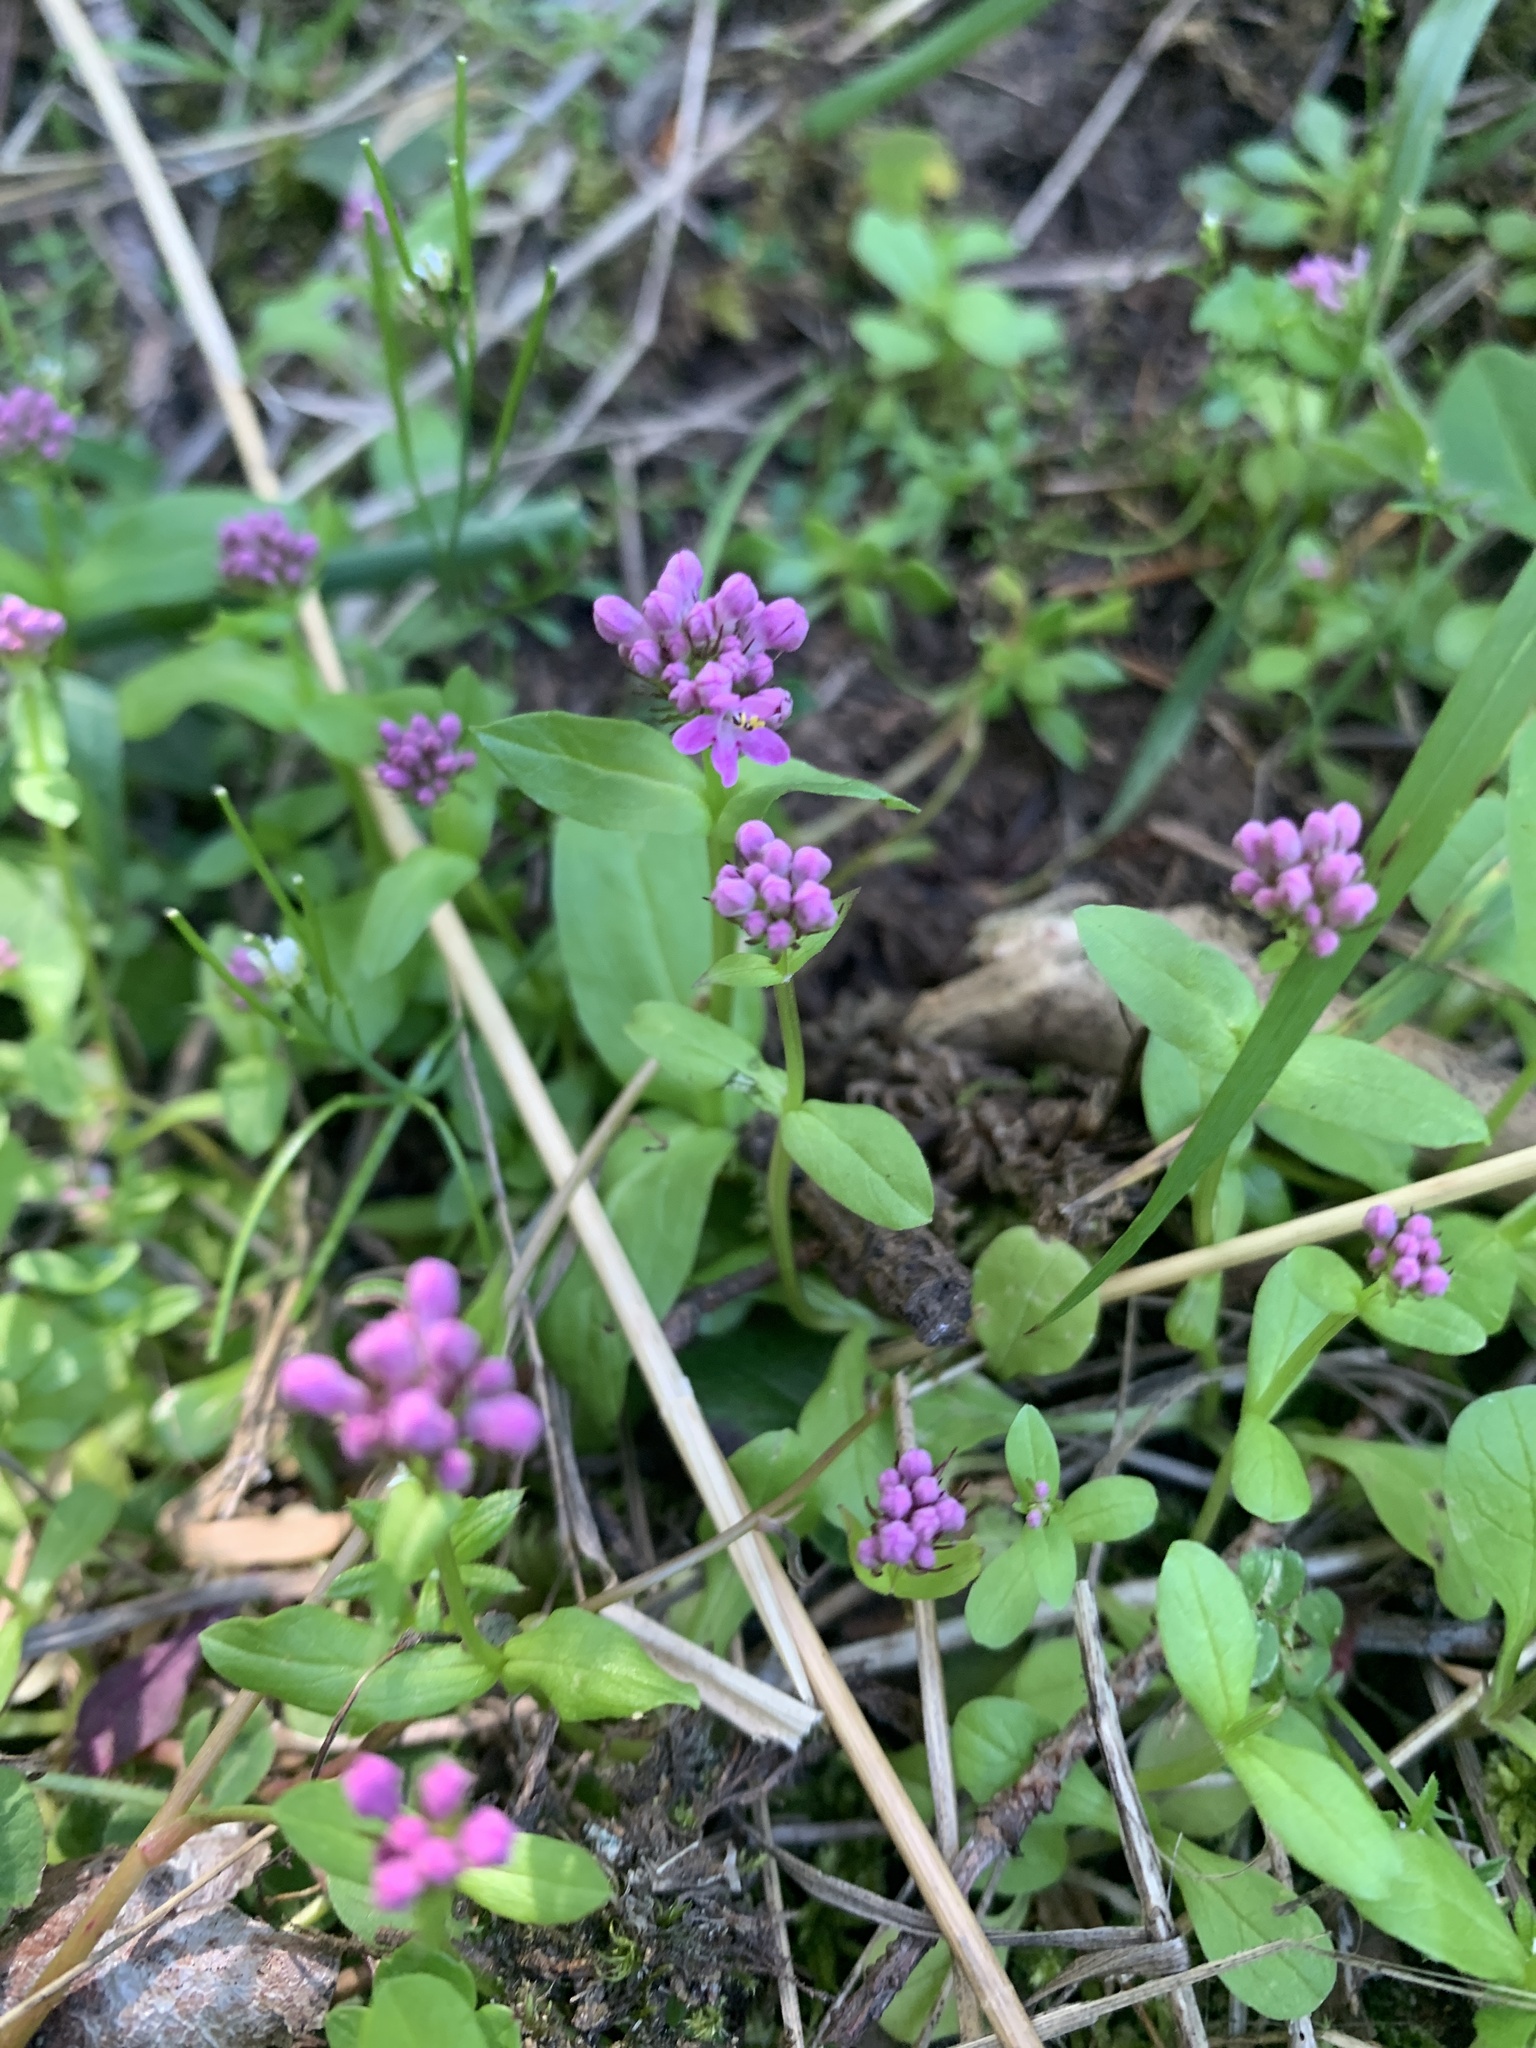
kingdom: Plantae
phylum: Tracheophyta
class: Magnoliopsida
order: Dipsacales
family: Caprifoliaceae
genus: Plectritis
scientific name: Plectritis congesta
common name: Pink plectritis
